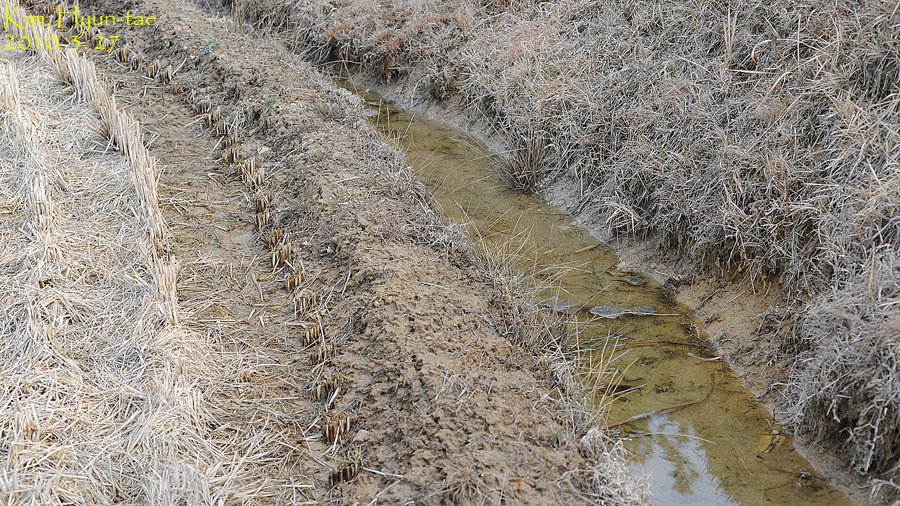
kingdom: Animalia
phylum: Chordata
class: Amphibia
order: Anura
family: Ranidae
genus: Rana
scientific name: Rana coreana
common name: Korean brown frog
